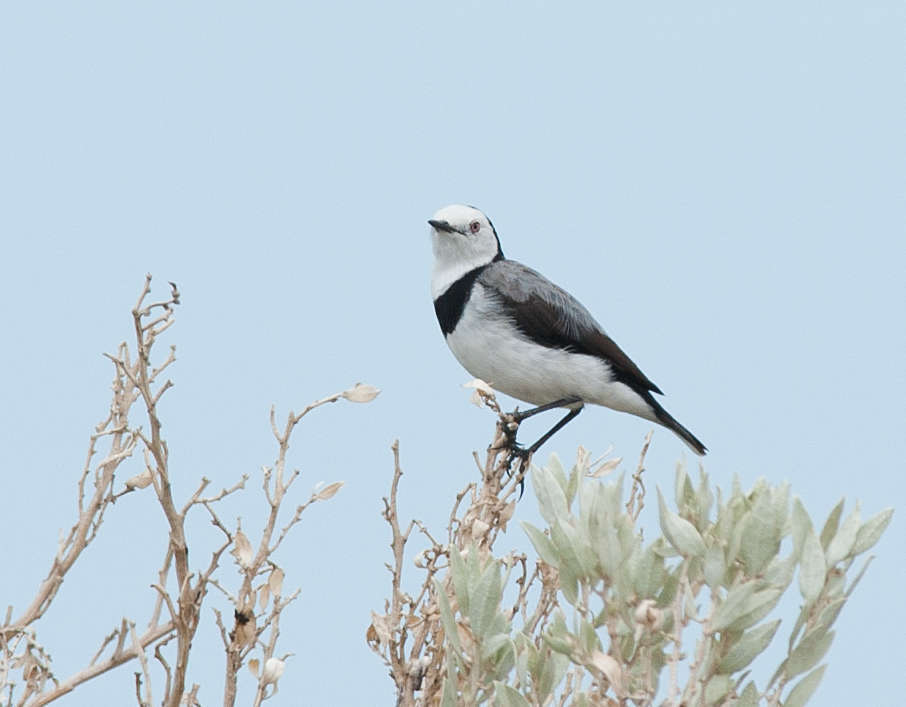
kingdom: Animalia
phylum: Chordata
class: Aves
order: Passeriformes
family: Meliphagidae
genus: Epthianura
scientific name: Epthianura albifrons
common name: White-fronted chat
